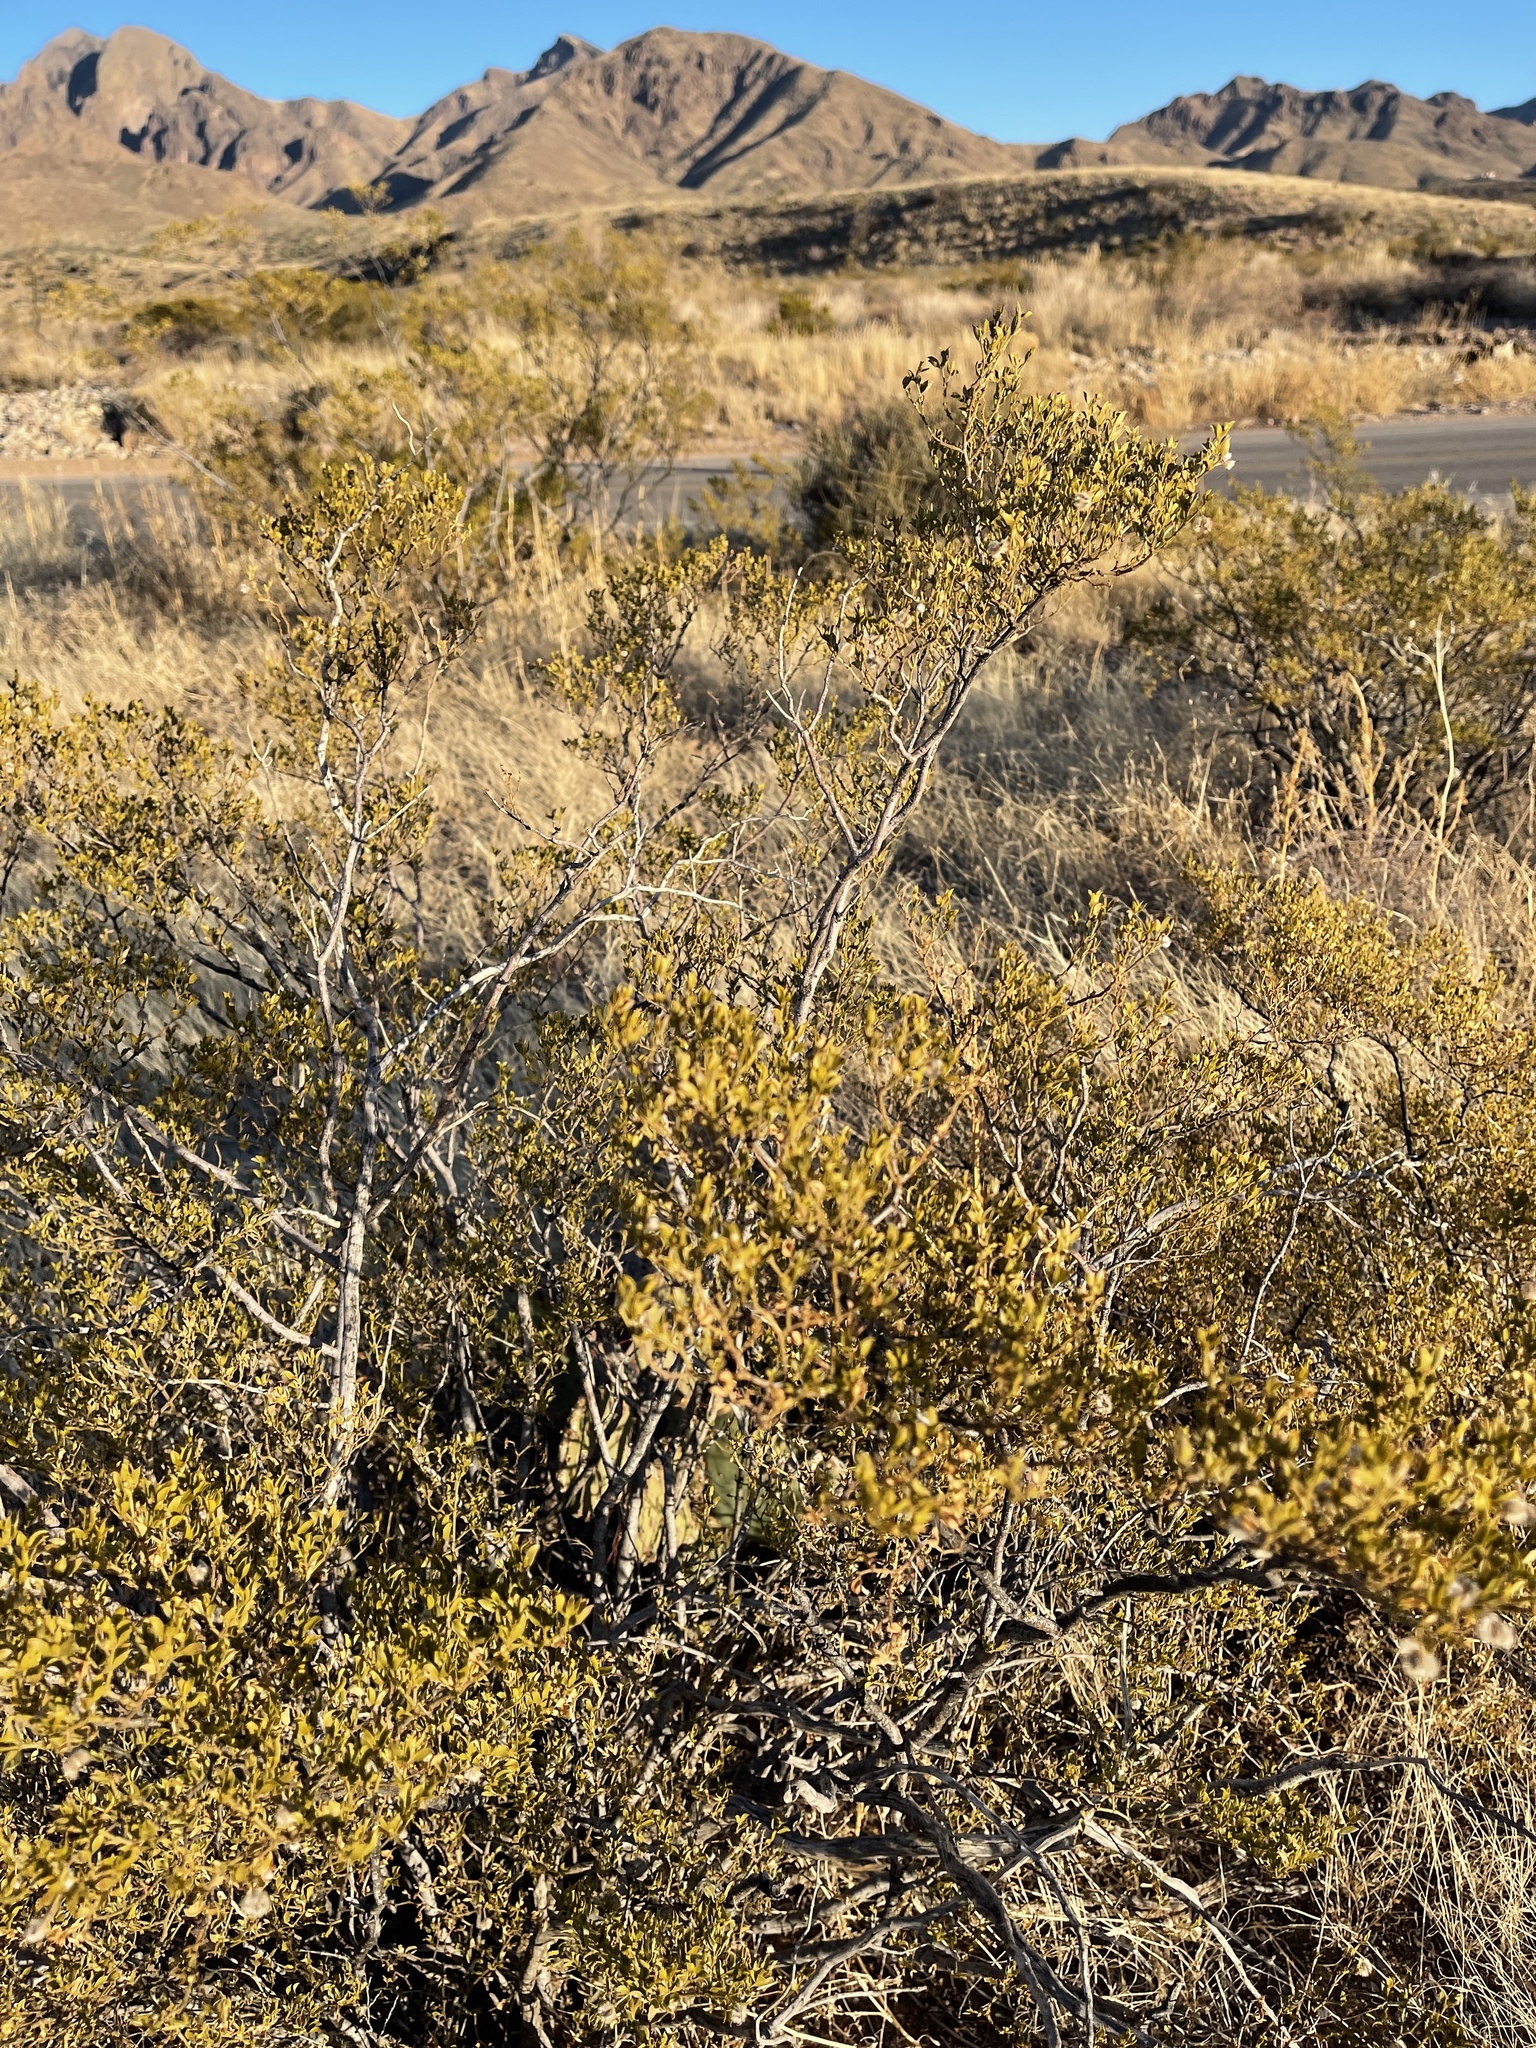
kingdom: Plantae
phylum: Tracheophyta
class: Magnoliopsida
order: Zygophyllales
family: Zygophyllaceae
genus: Larrea
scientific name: Larrea tridentata
